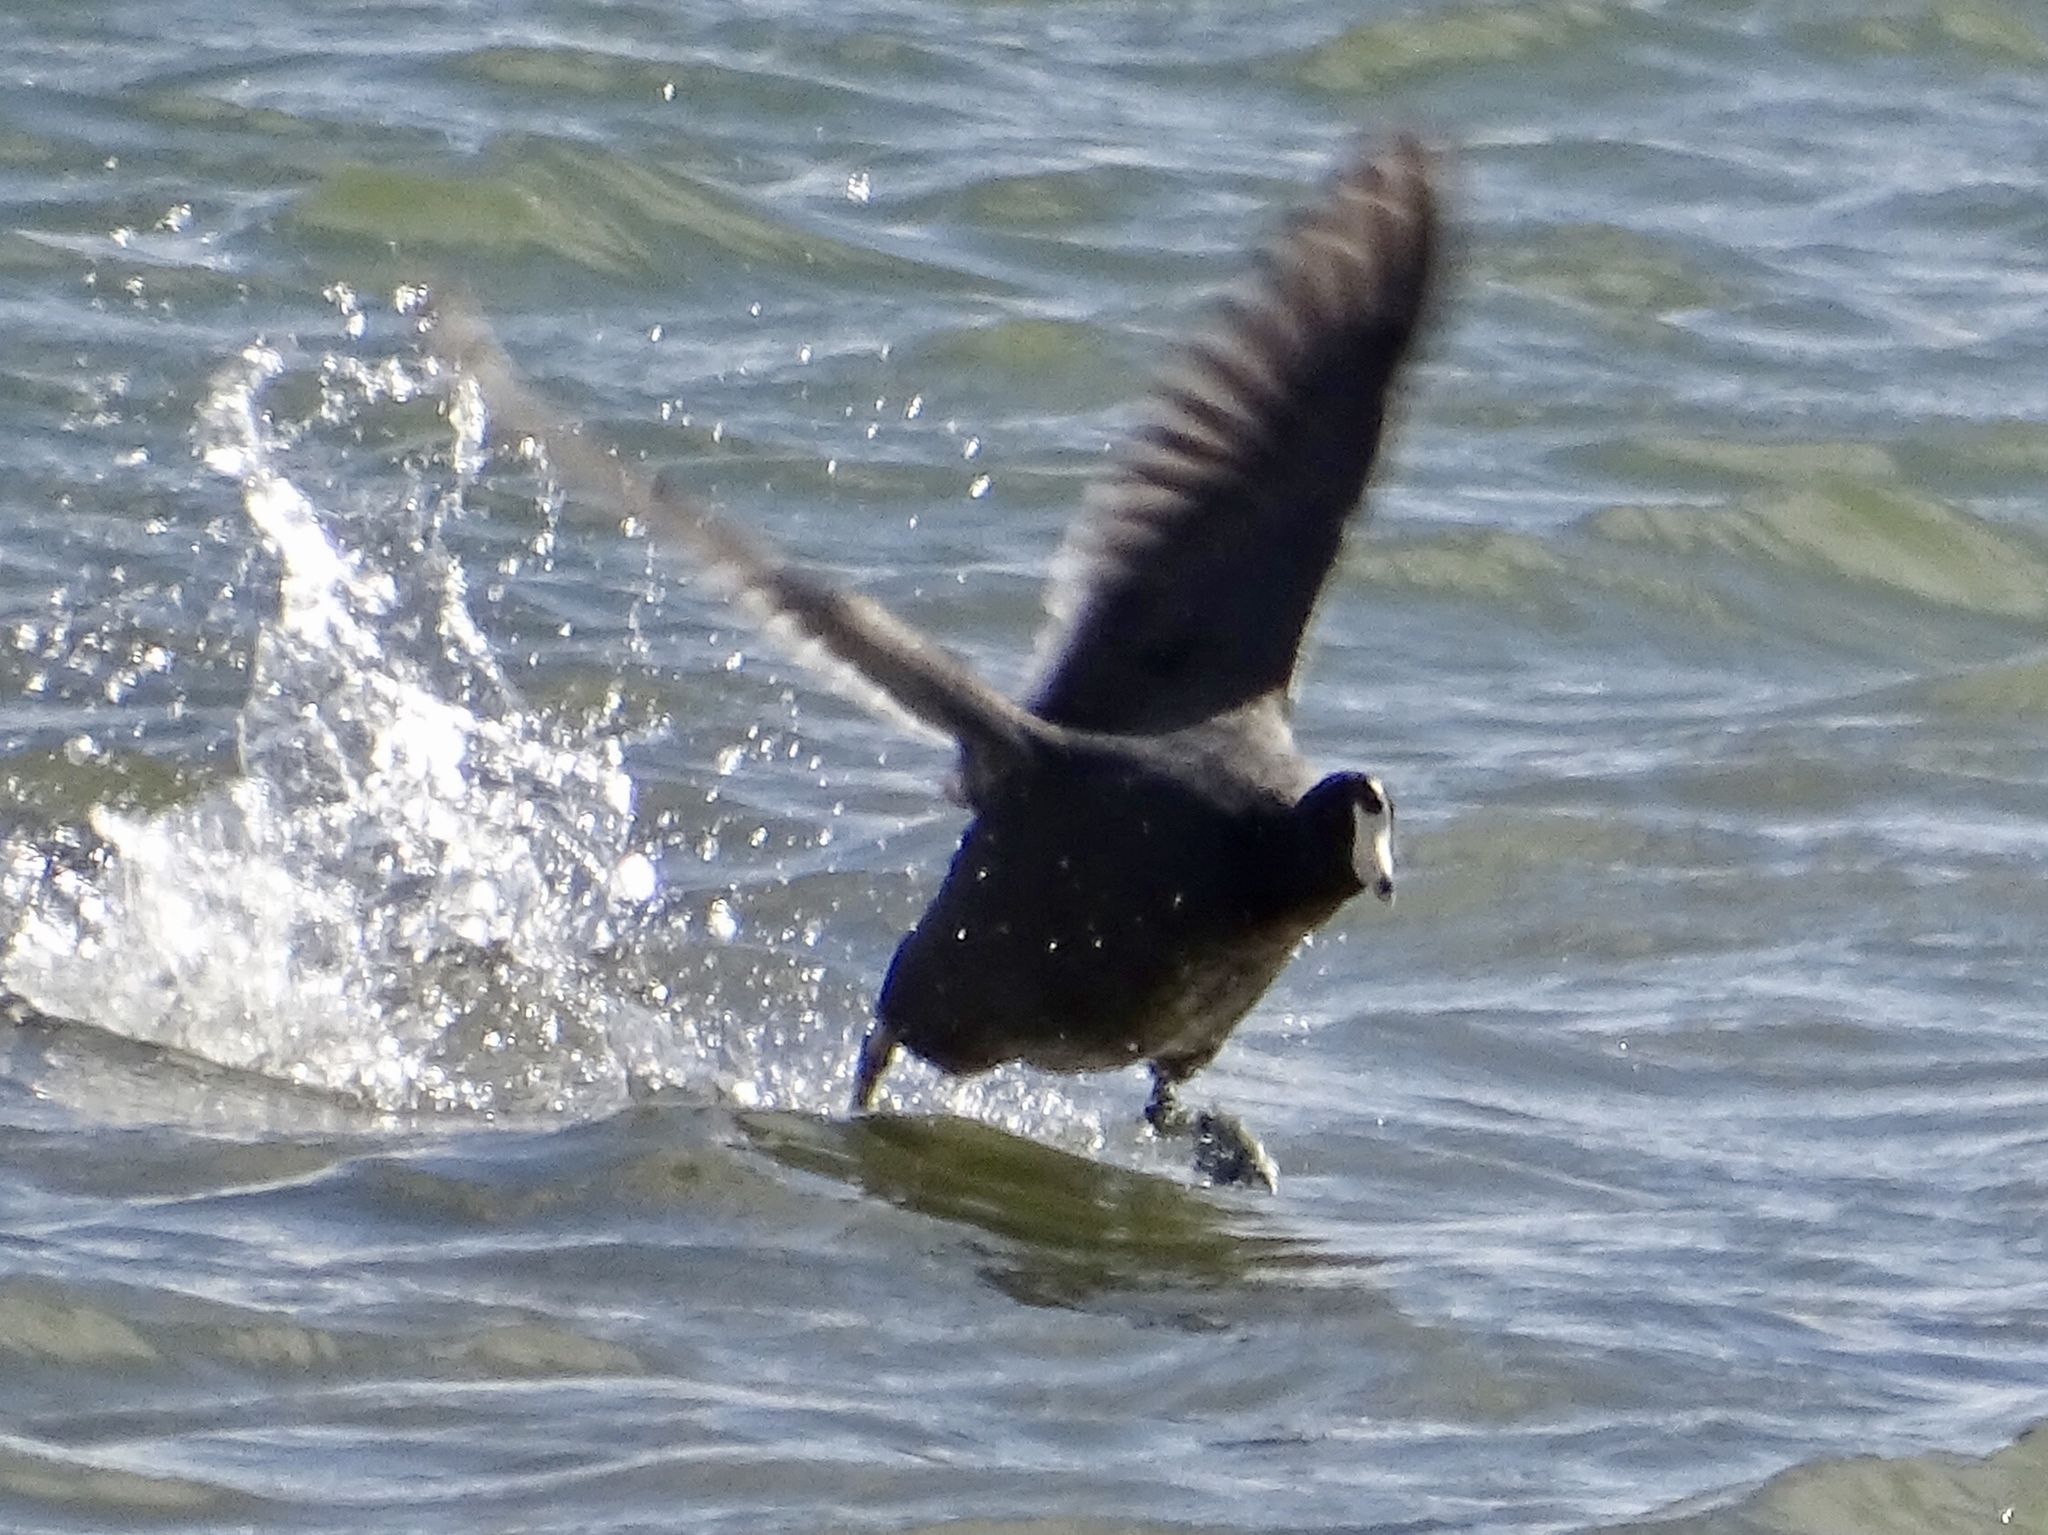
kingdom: Animalia
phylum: Chordata
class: Aves
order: Gruiformes
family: Rallidae
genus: Fulica
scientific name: Fulica americana
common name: American coot
